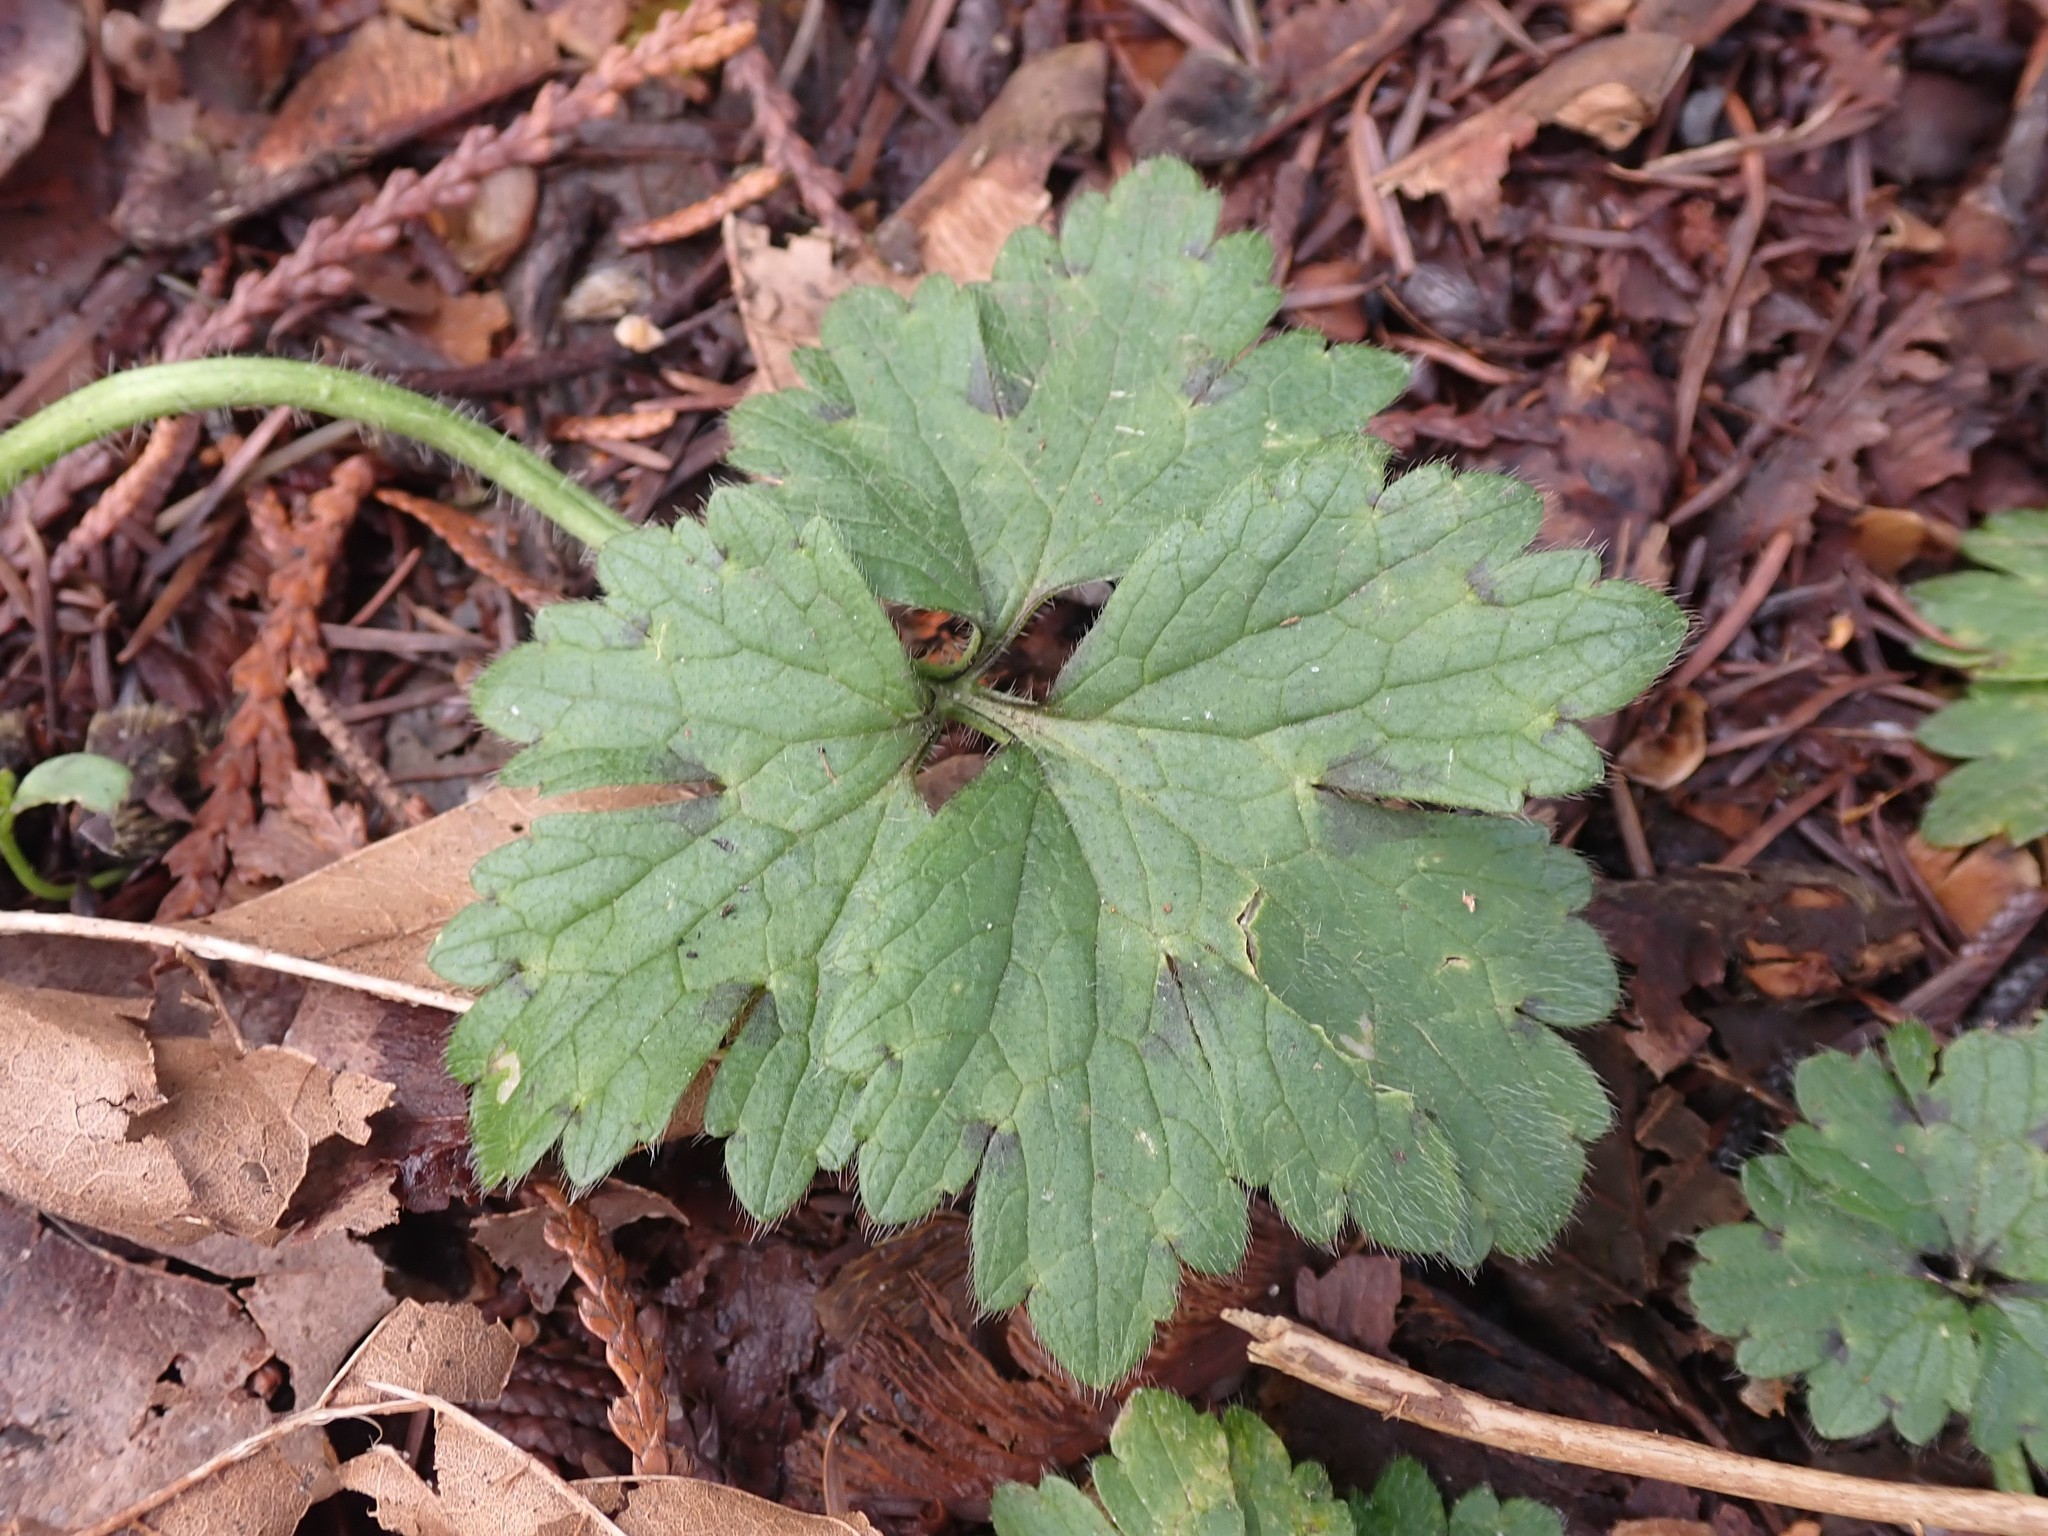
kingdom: Plantae
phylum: Tracheophyta
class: Magnoliopsida
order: Ranunculales
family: Ranunculaceae
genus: Ranunculus
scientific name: Ranunculus repens
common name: Creeping buttercup
